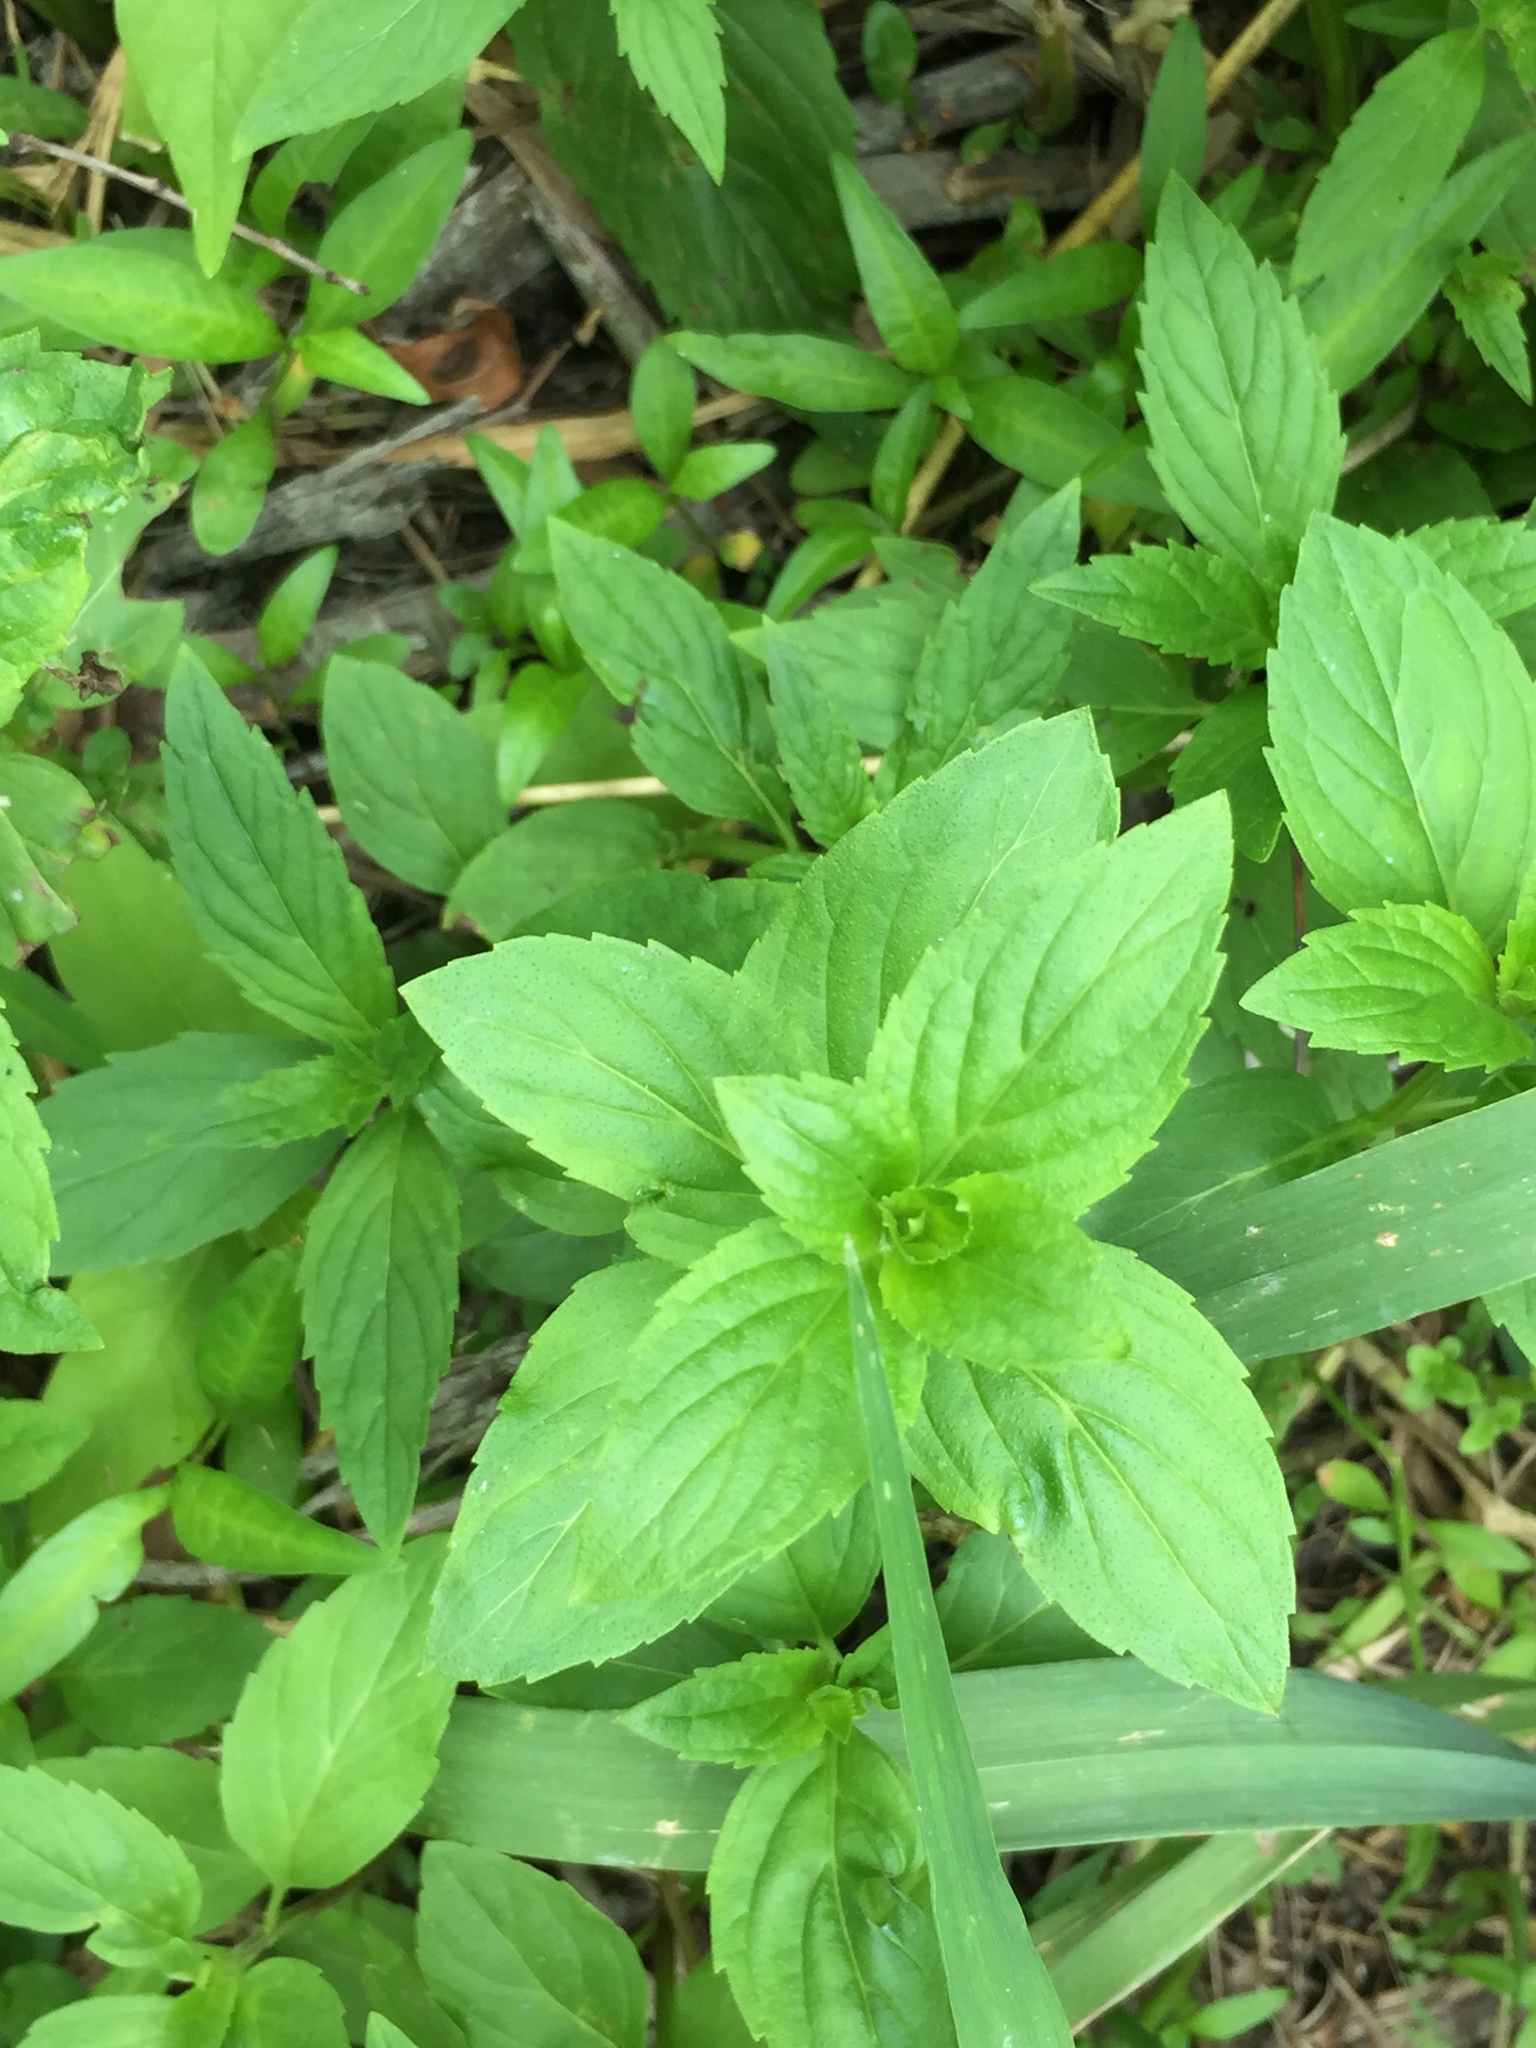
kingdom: Plantae
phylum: Tracheophyta
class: Magnoliopsida
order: Lamiales
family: Lamiaceae
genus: Mentha
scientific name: Mentha canadensis
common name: American corn mint
